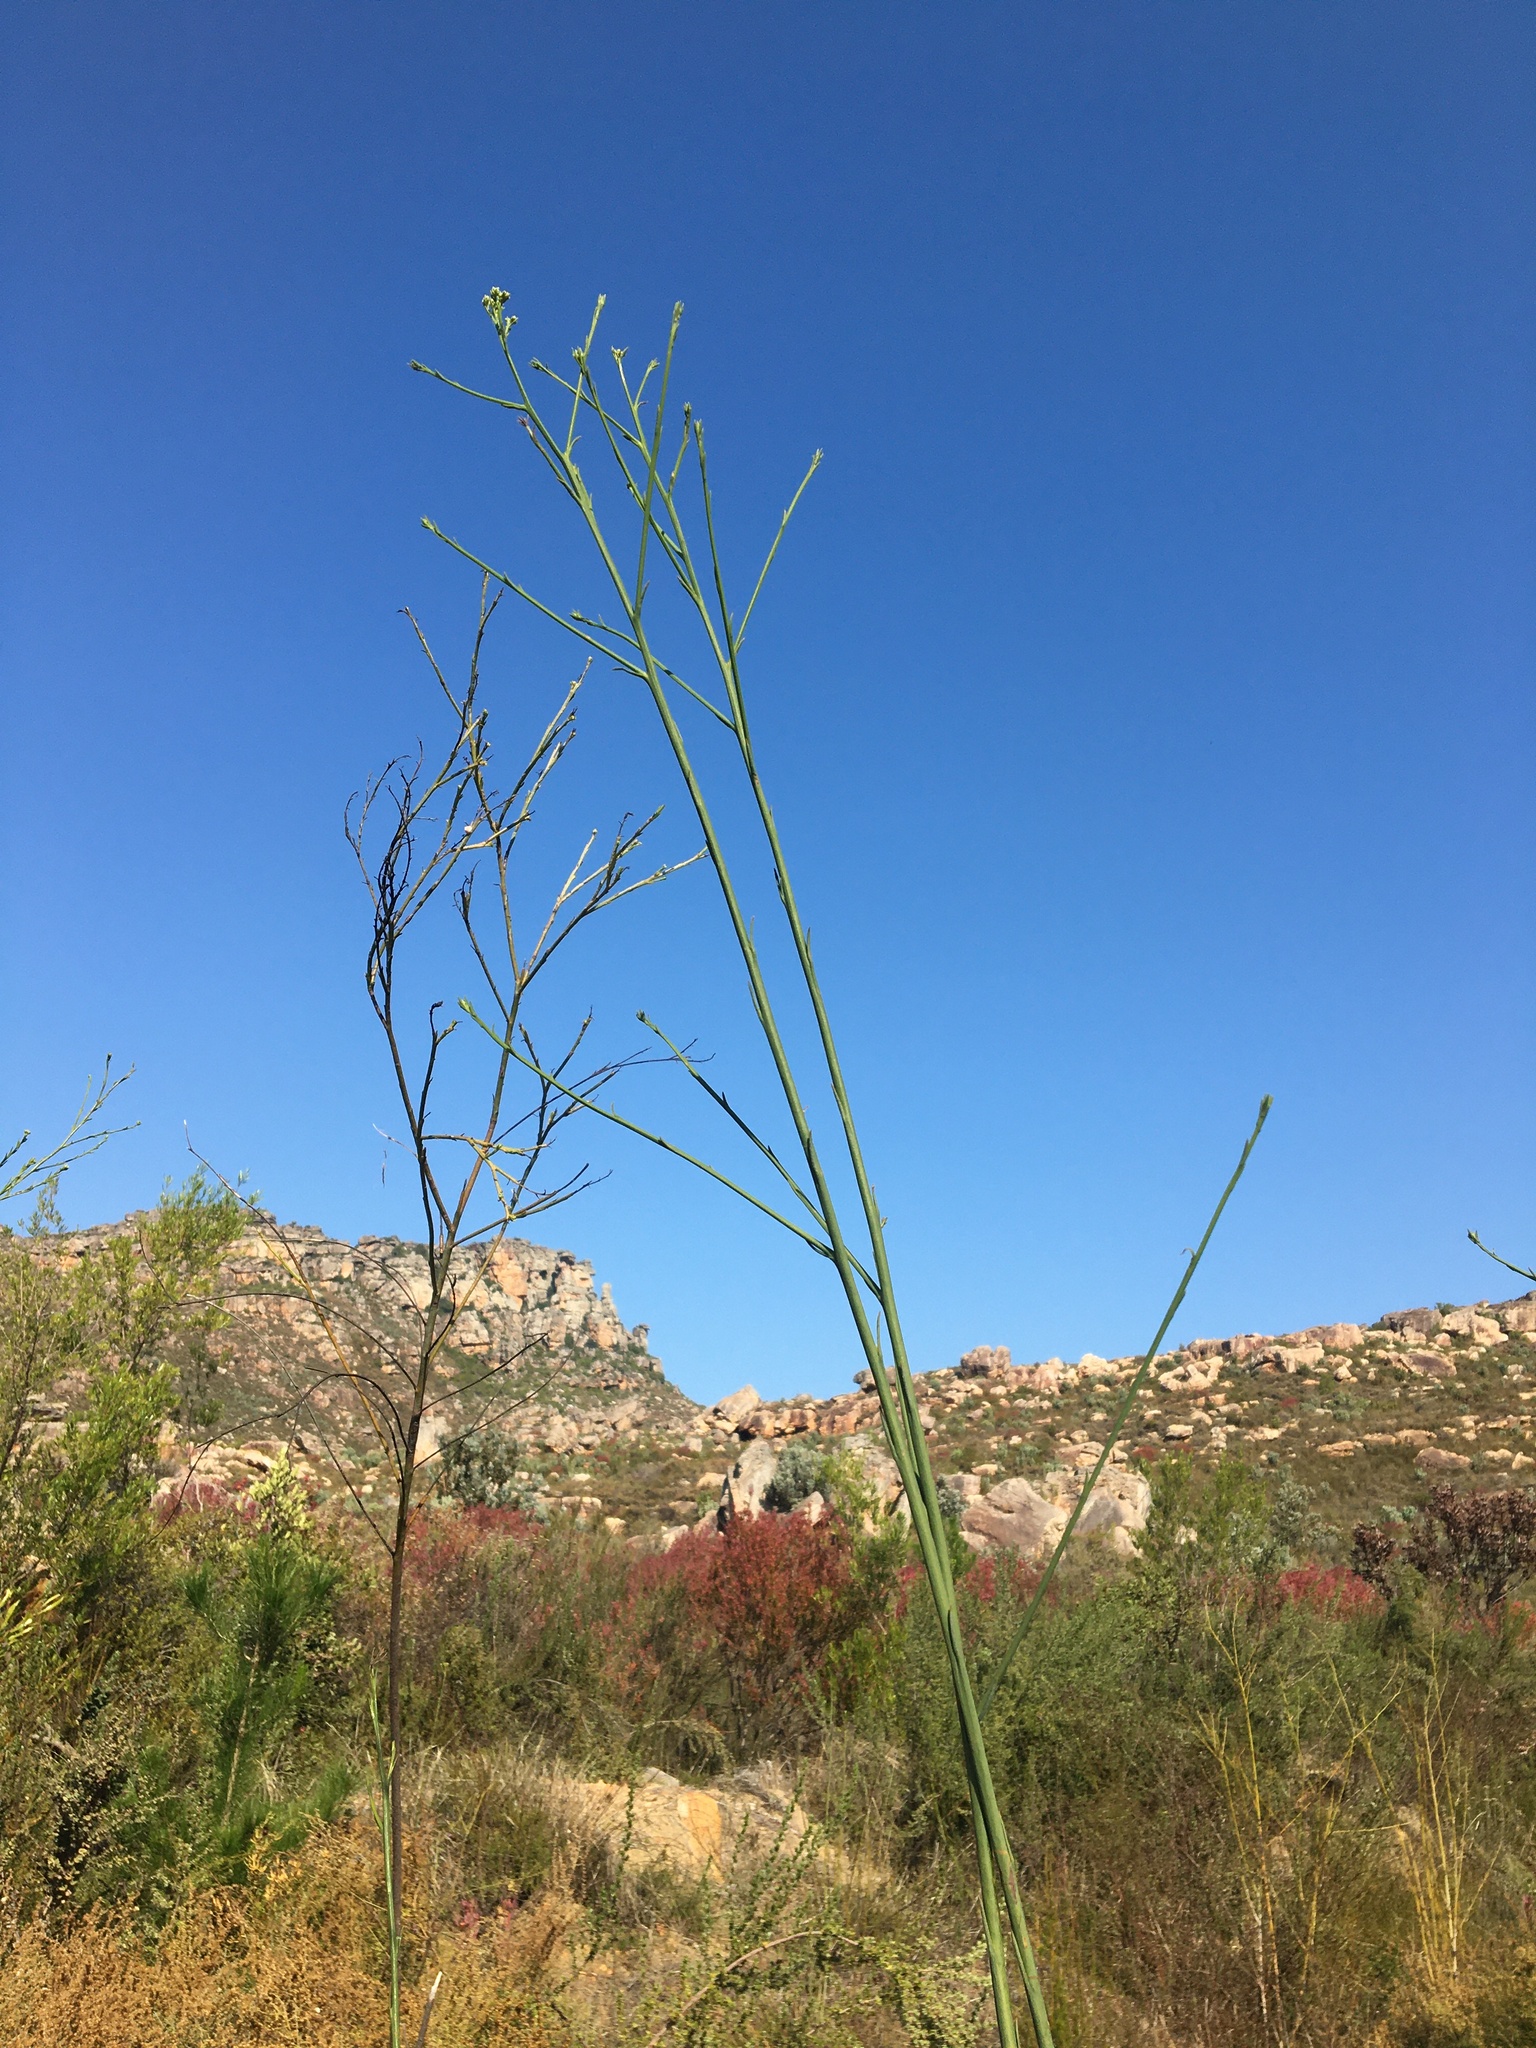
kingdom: Plantae
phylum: Tracheophyta
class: Magnoliopsida
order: Santalales
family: Thesiaceae
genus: Thesium
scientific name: Thesium strictum
